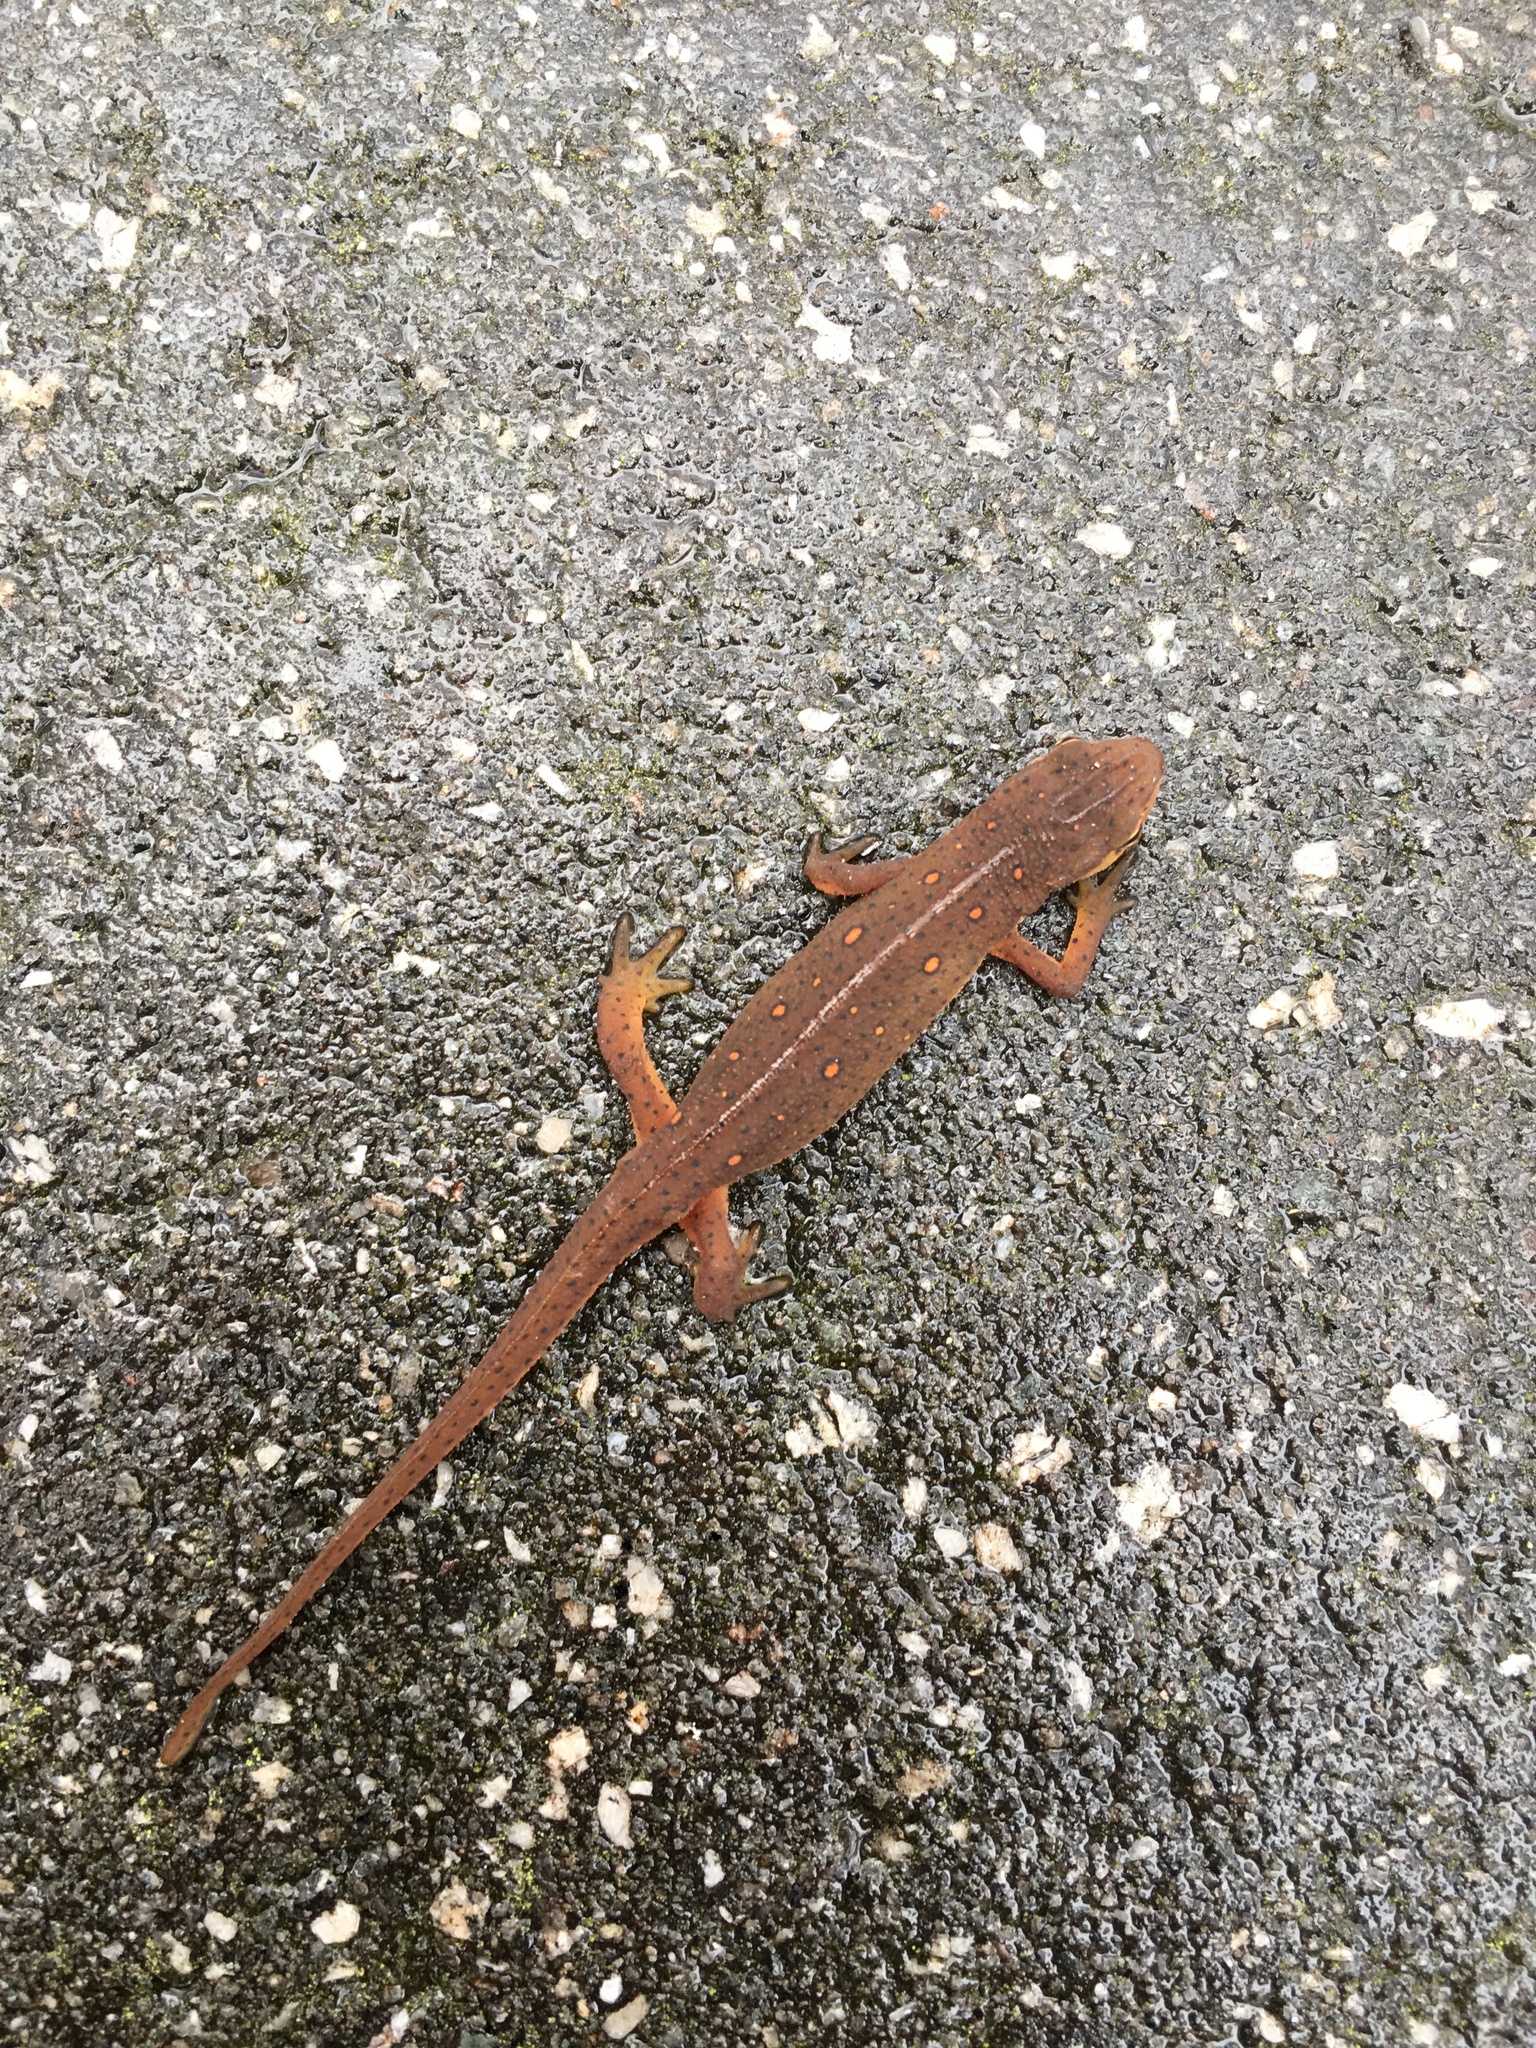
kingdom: Animalia
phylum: Chordata
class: Amphibia
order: Caudata
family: Salamandridae
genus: Notophthalmus
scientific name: Notophthalmus viridescens
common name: Eastern newt
